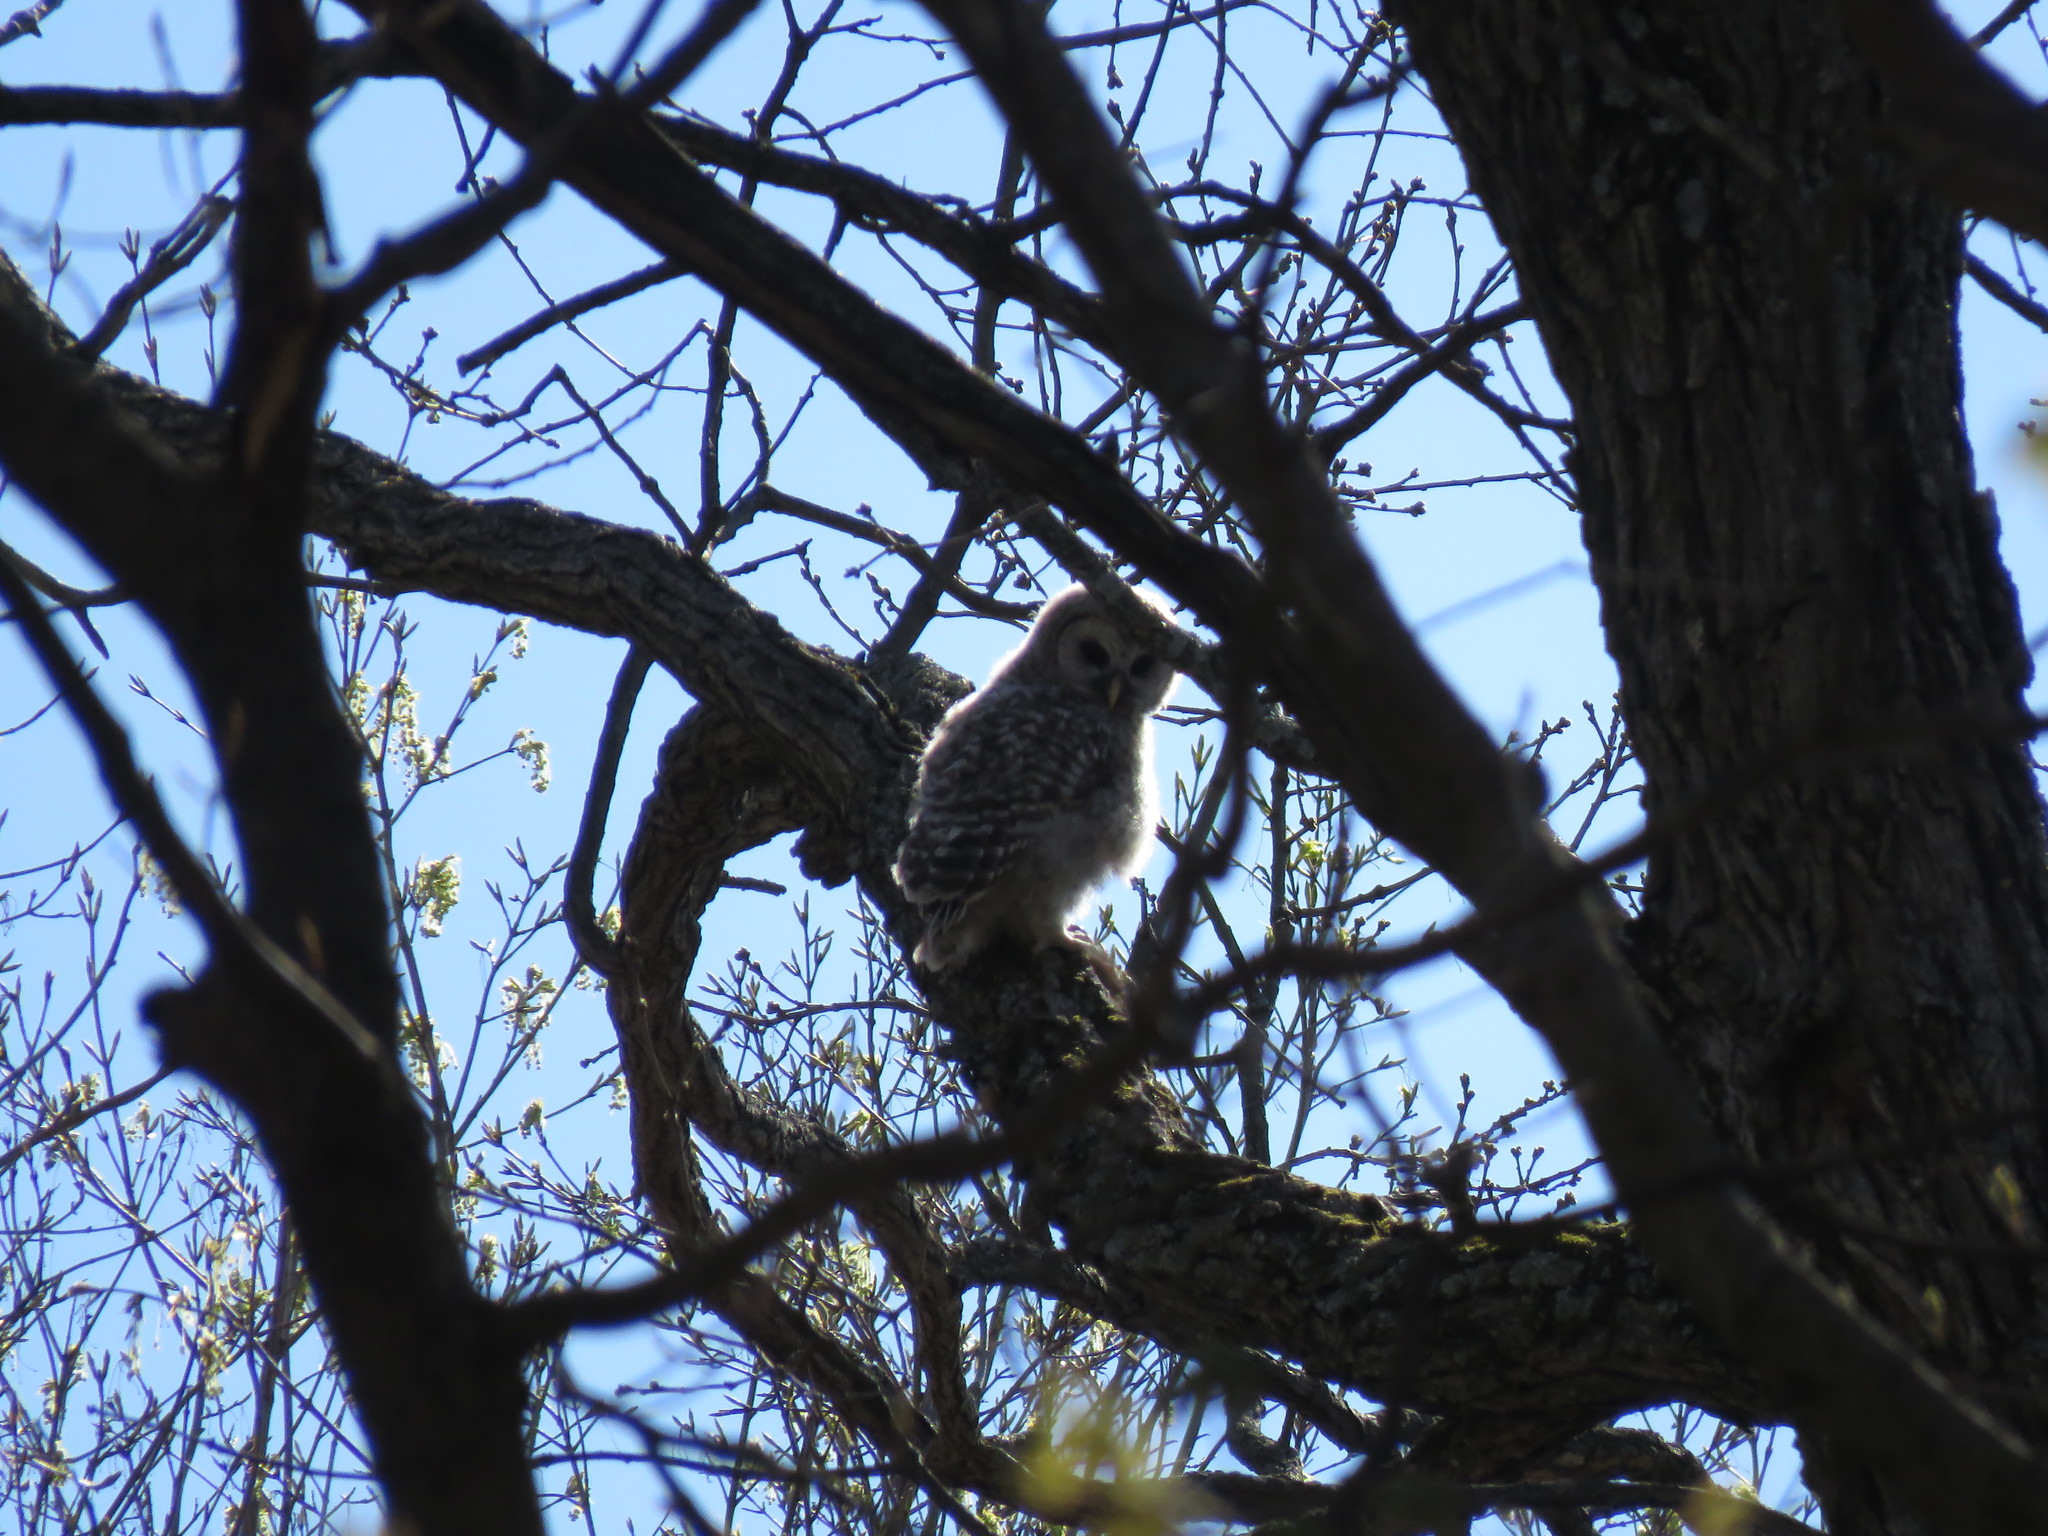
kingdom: Animalia
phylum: Chordata
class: Aves
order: Strigiformes
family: Strigidae
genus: Strix
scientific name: Strix varia
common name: Barred owl
